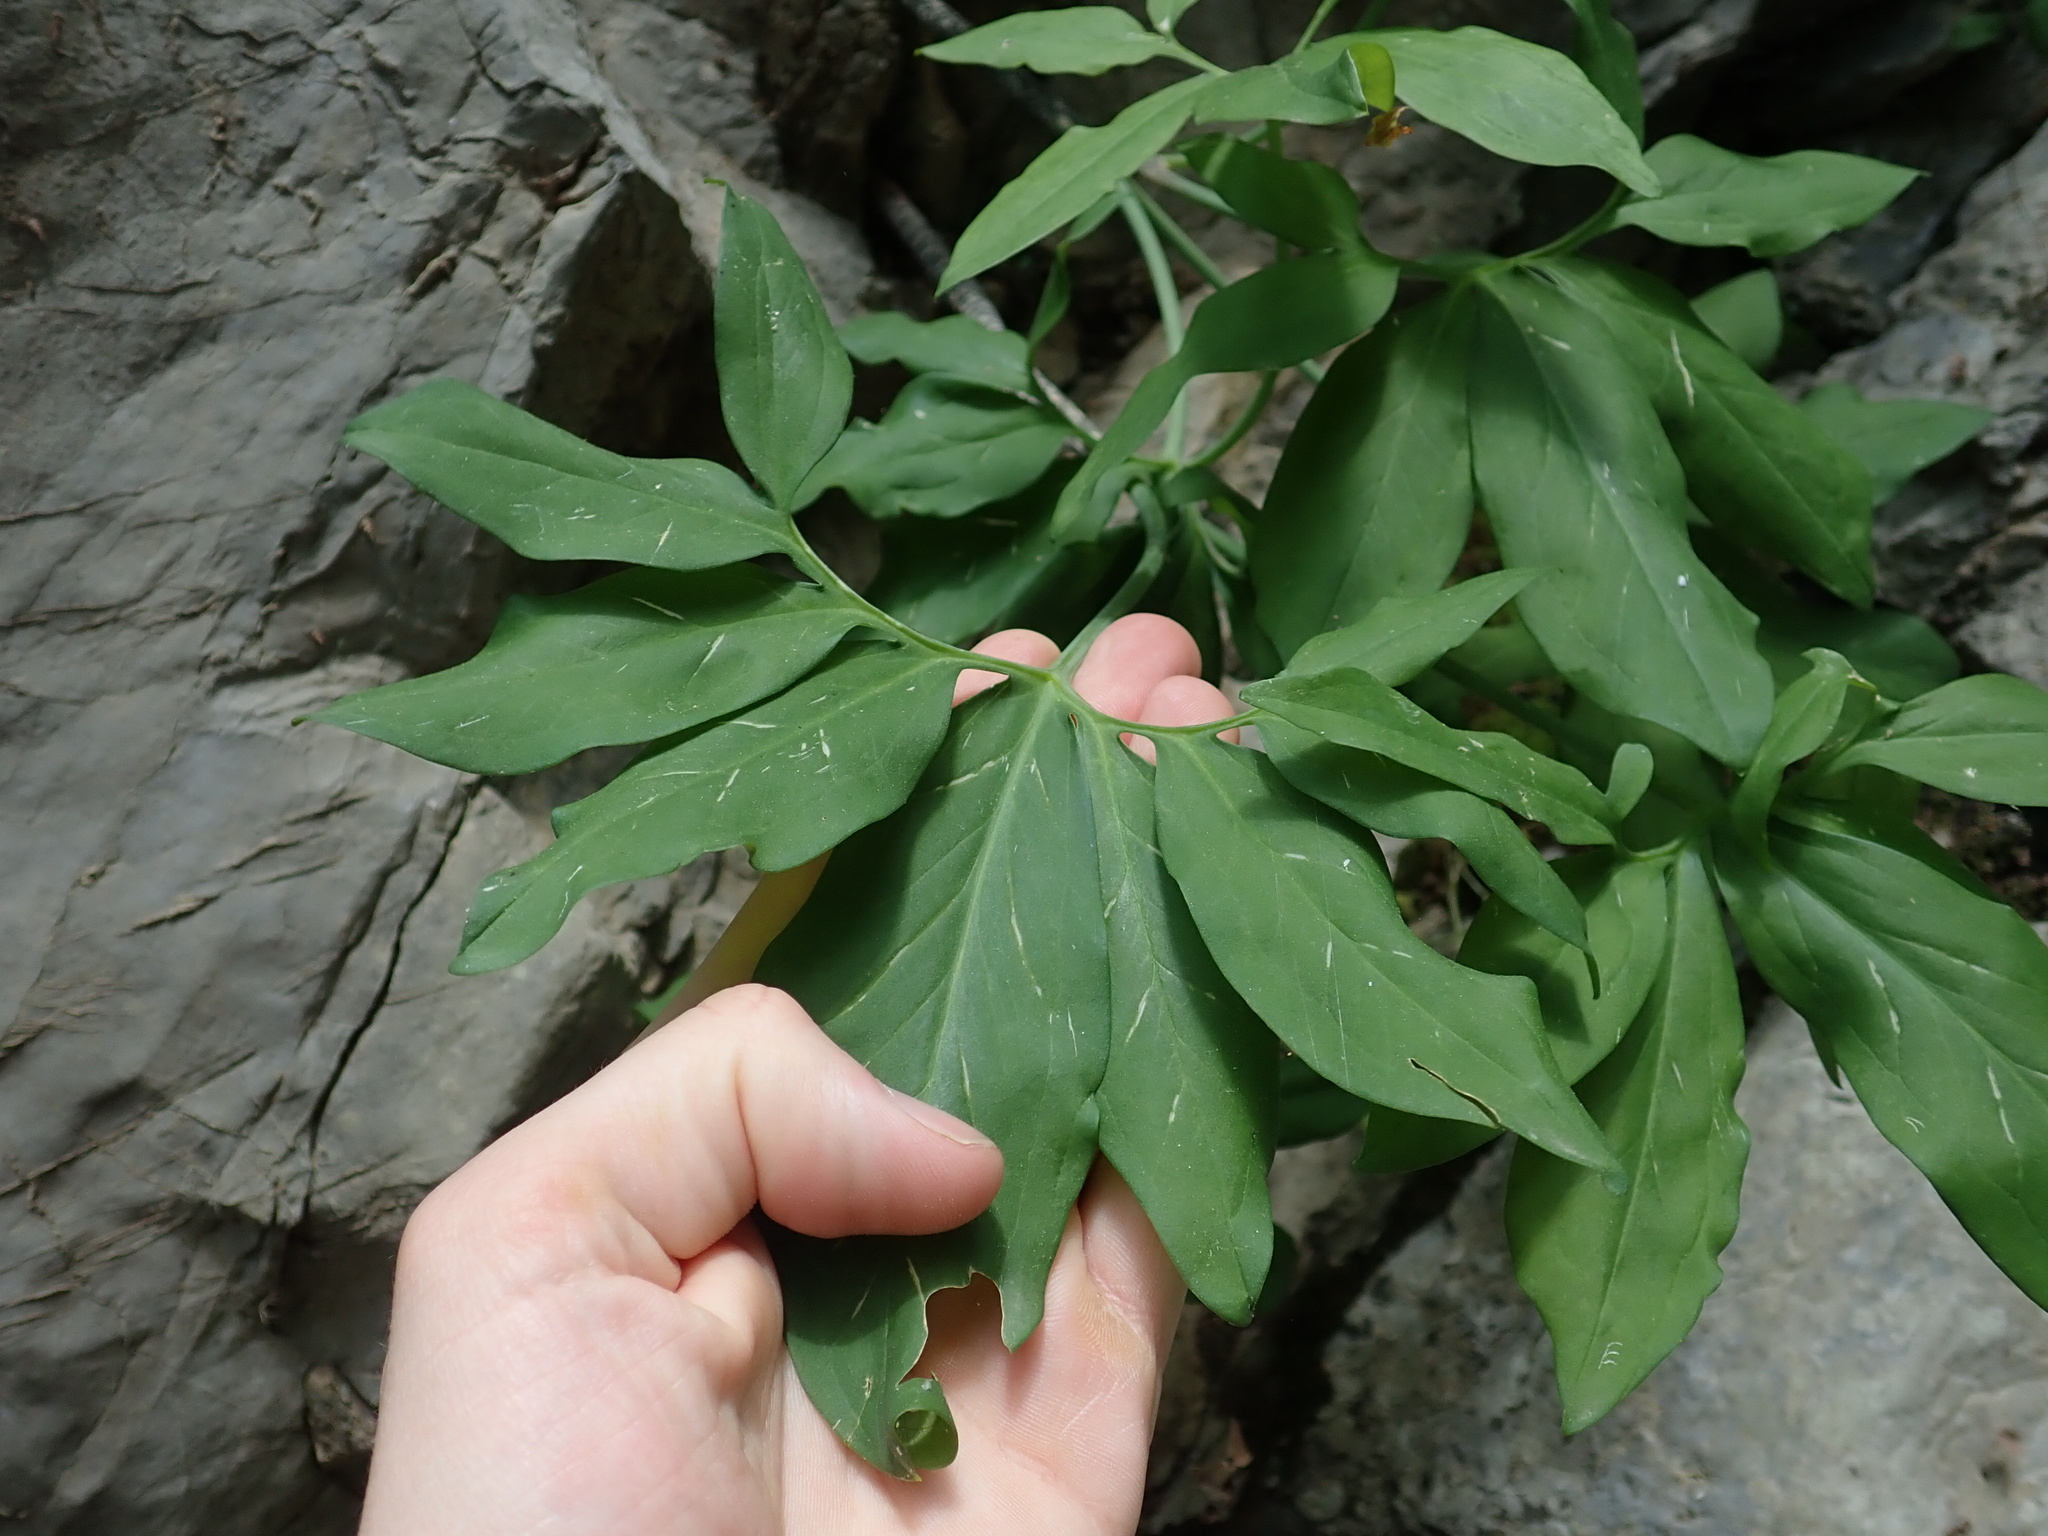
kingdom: Plantae
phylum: Tracheophyta
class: Liliopsida
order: Alismatales
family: Araceae
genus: Dracunculus
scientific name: Dracunculus vulgaris
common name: Dragon arum
